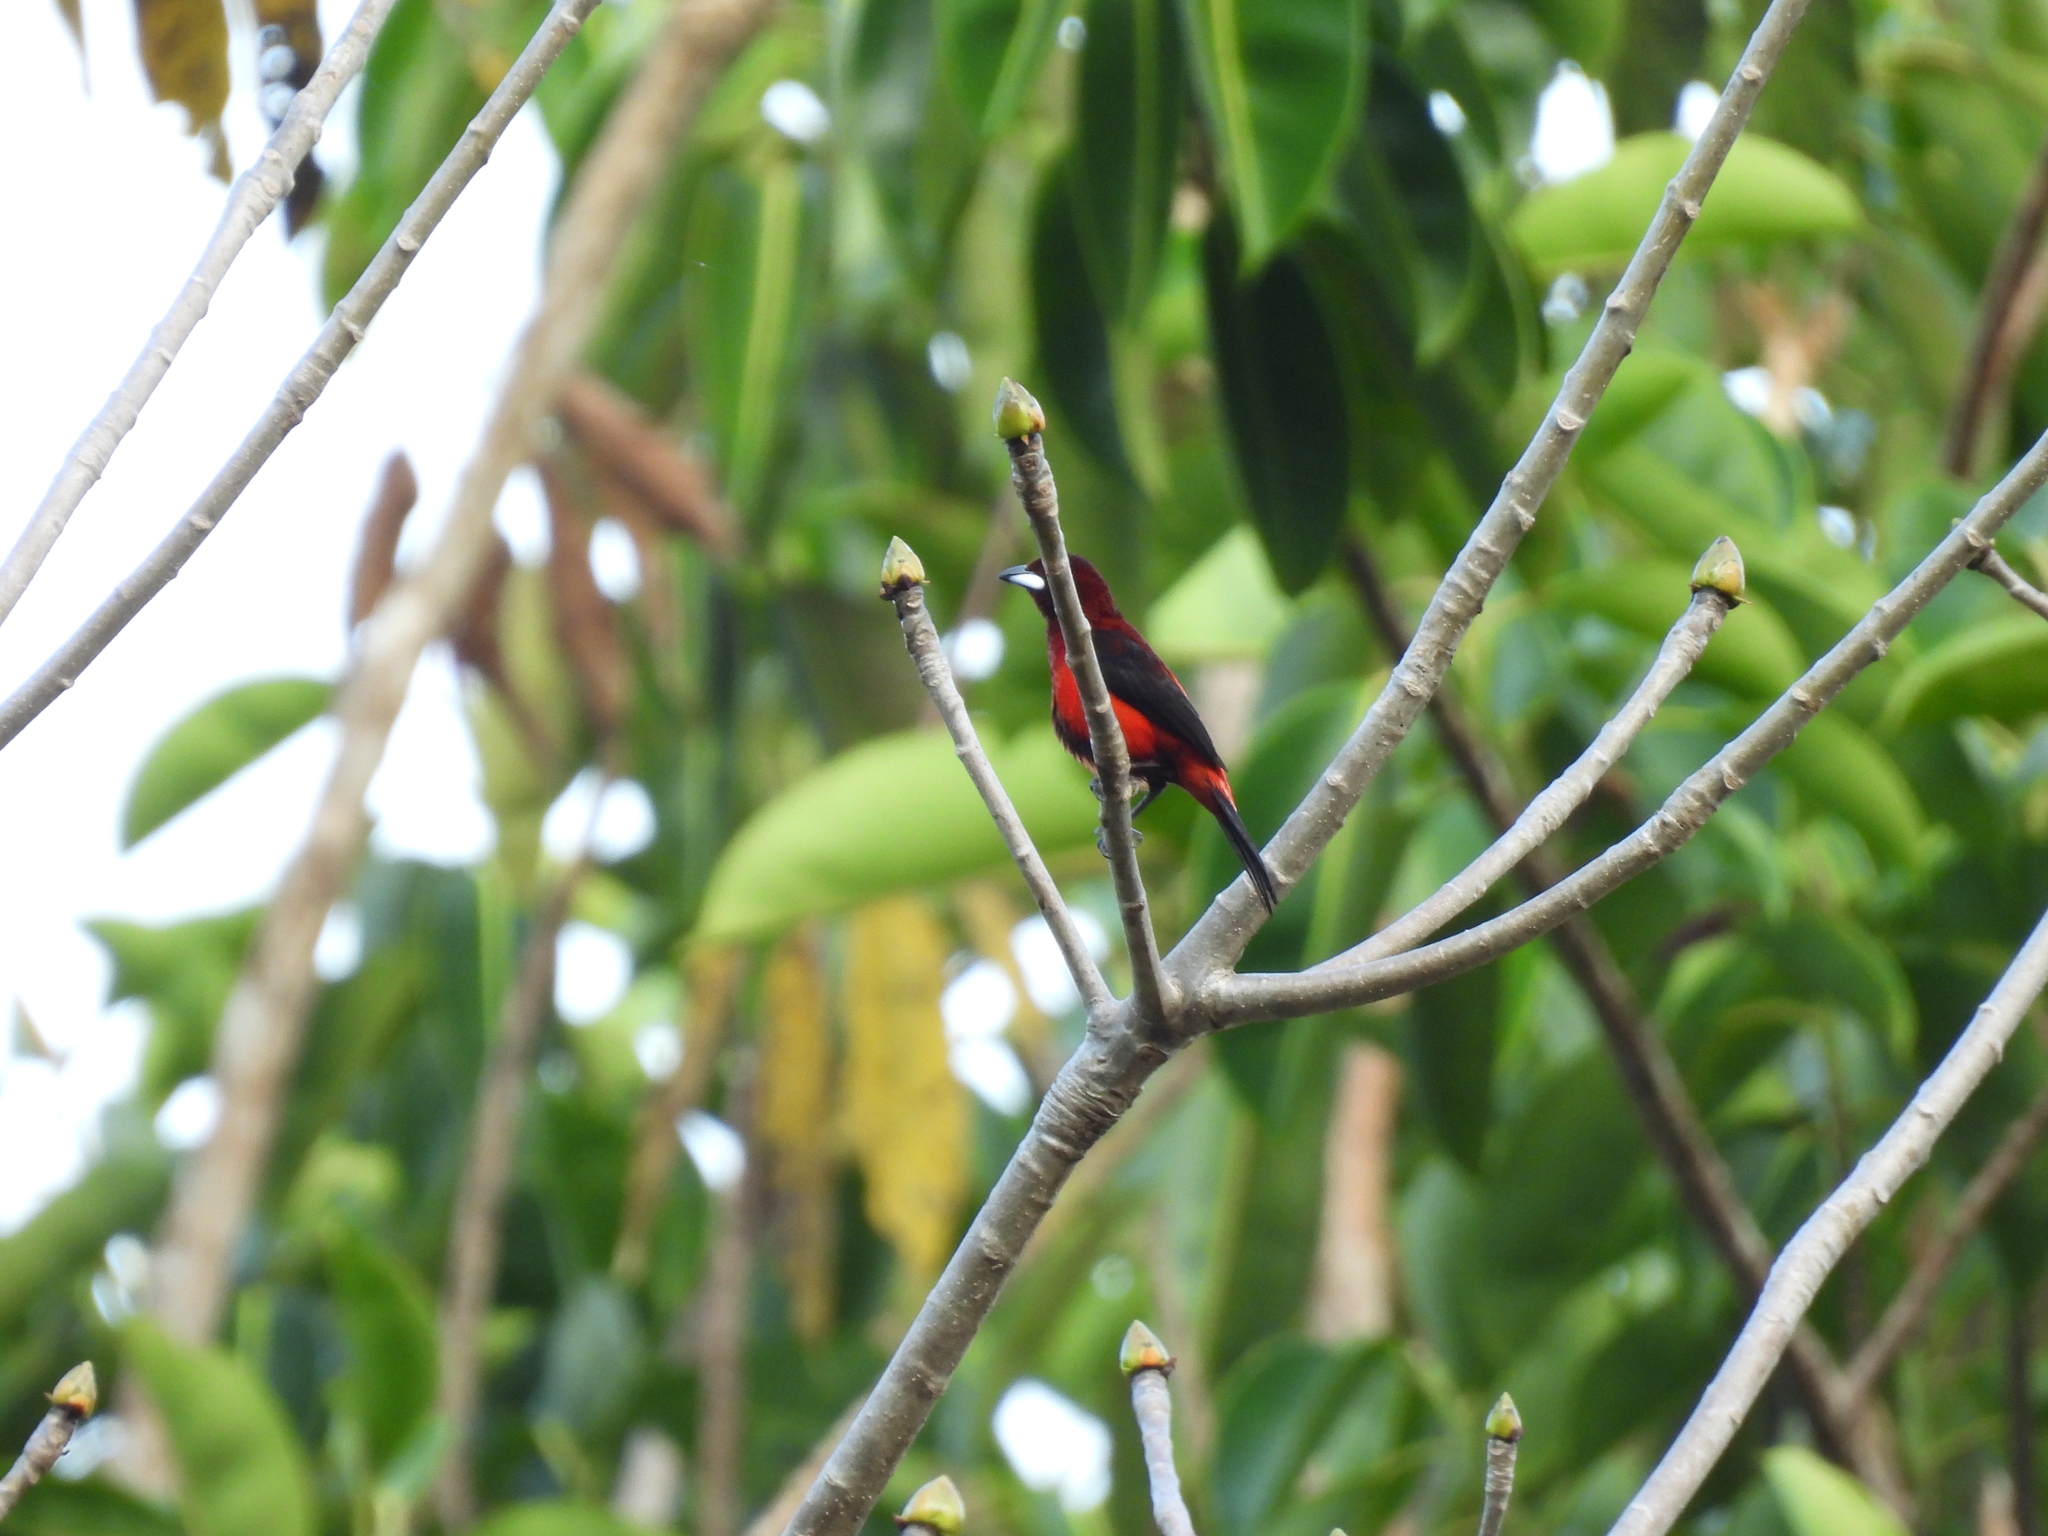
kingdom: Animalia
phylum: Chordata
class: Aves
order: Passeriformes
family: Thraupidae
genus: Ramphocelus
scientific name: Ramphocelus dimidiatus
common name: Crimson-backed tanager
